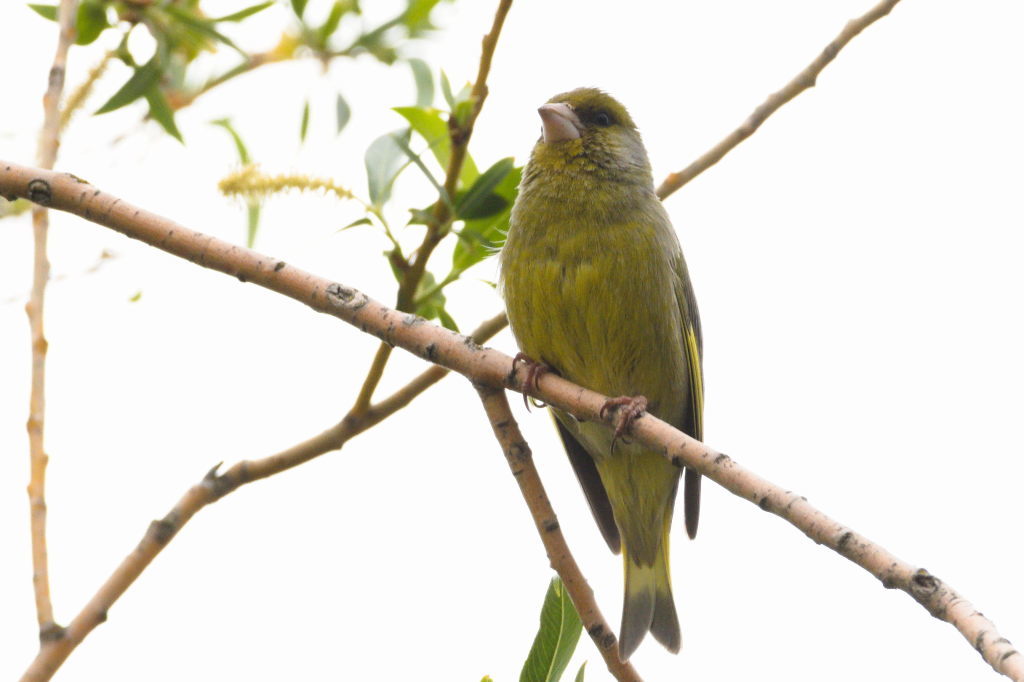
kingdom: Plantae
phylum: Tracheophyta
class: Liliopsida
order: Poales
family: Poaceae
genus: Chloris
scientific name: Chloris chloris
